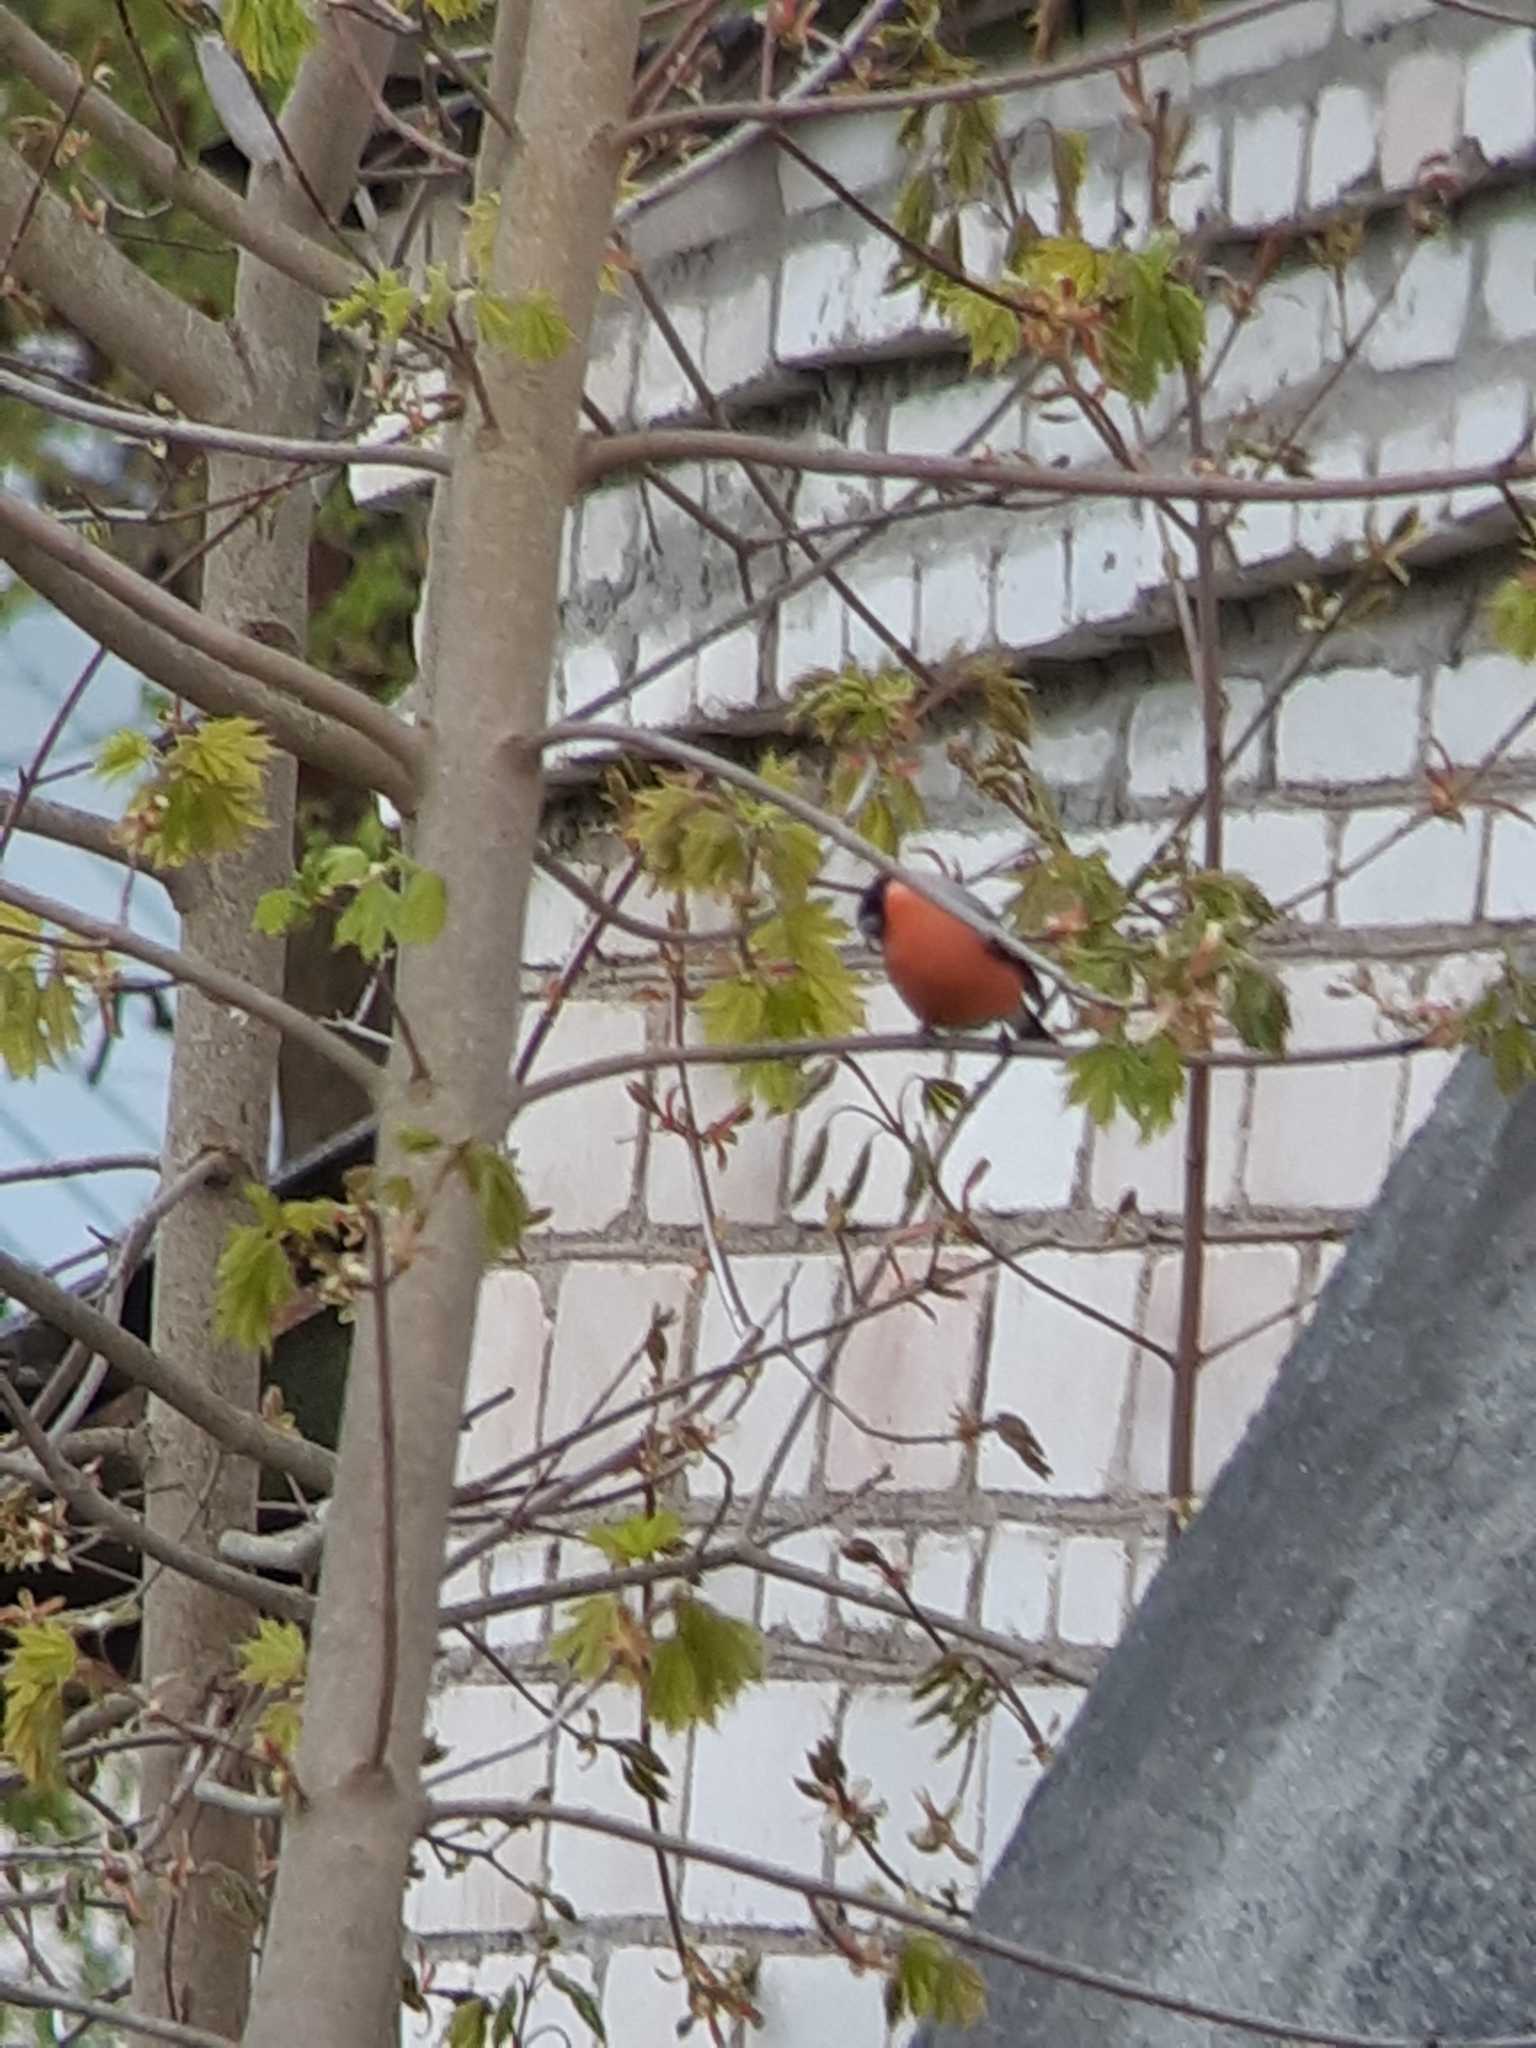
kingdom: Animalia
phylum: Chordata
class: Aves
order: Passeriformes
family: Fringillidae
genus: Pyrrhula
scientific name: Pyrrhula pyrrhula
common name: Eurasian bullfinch
